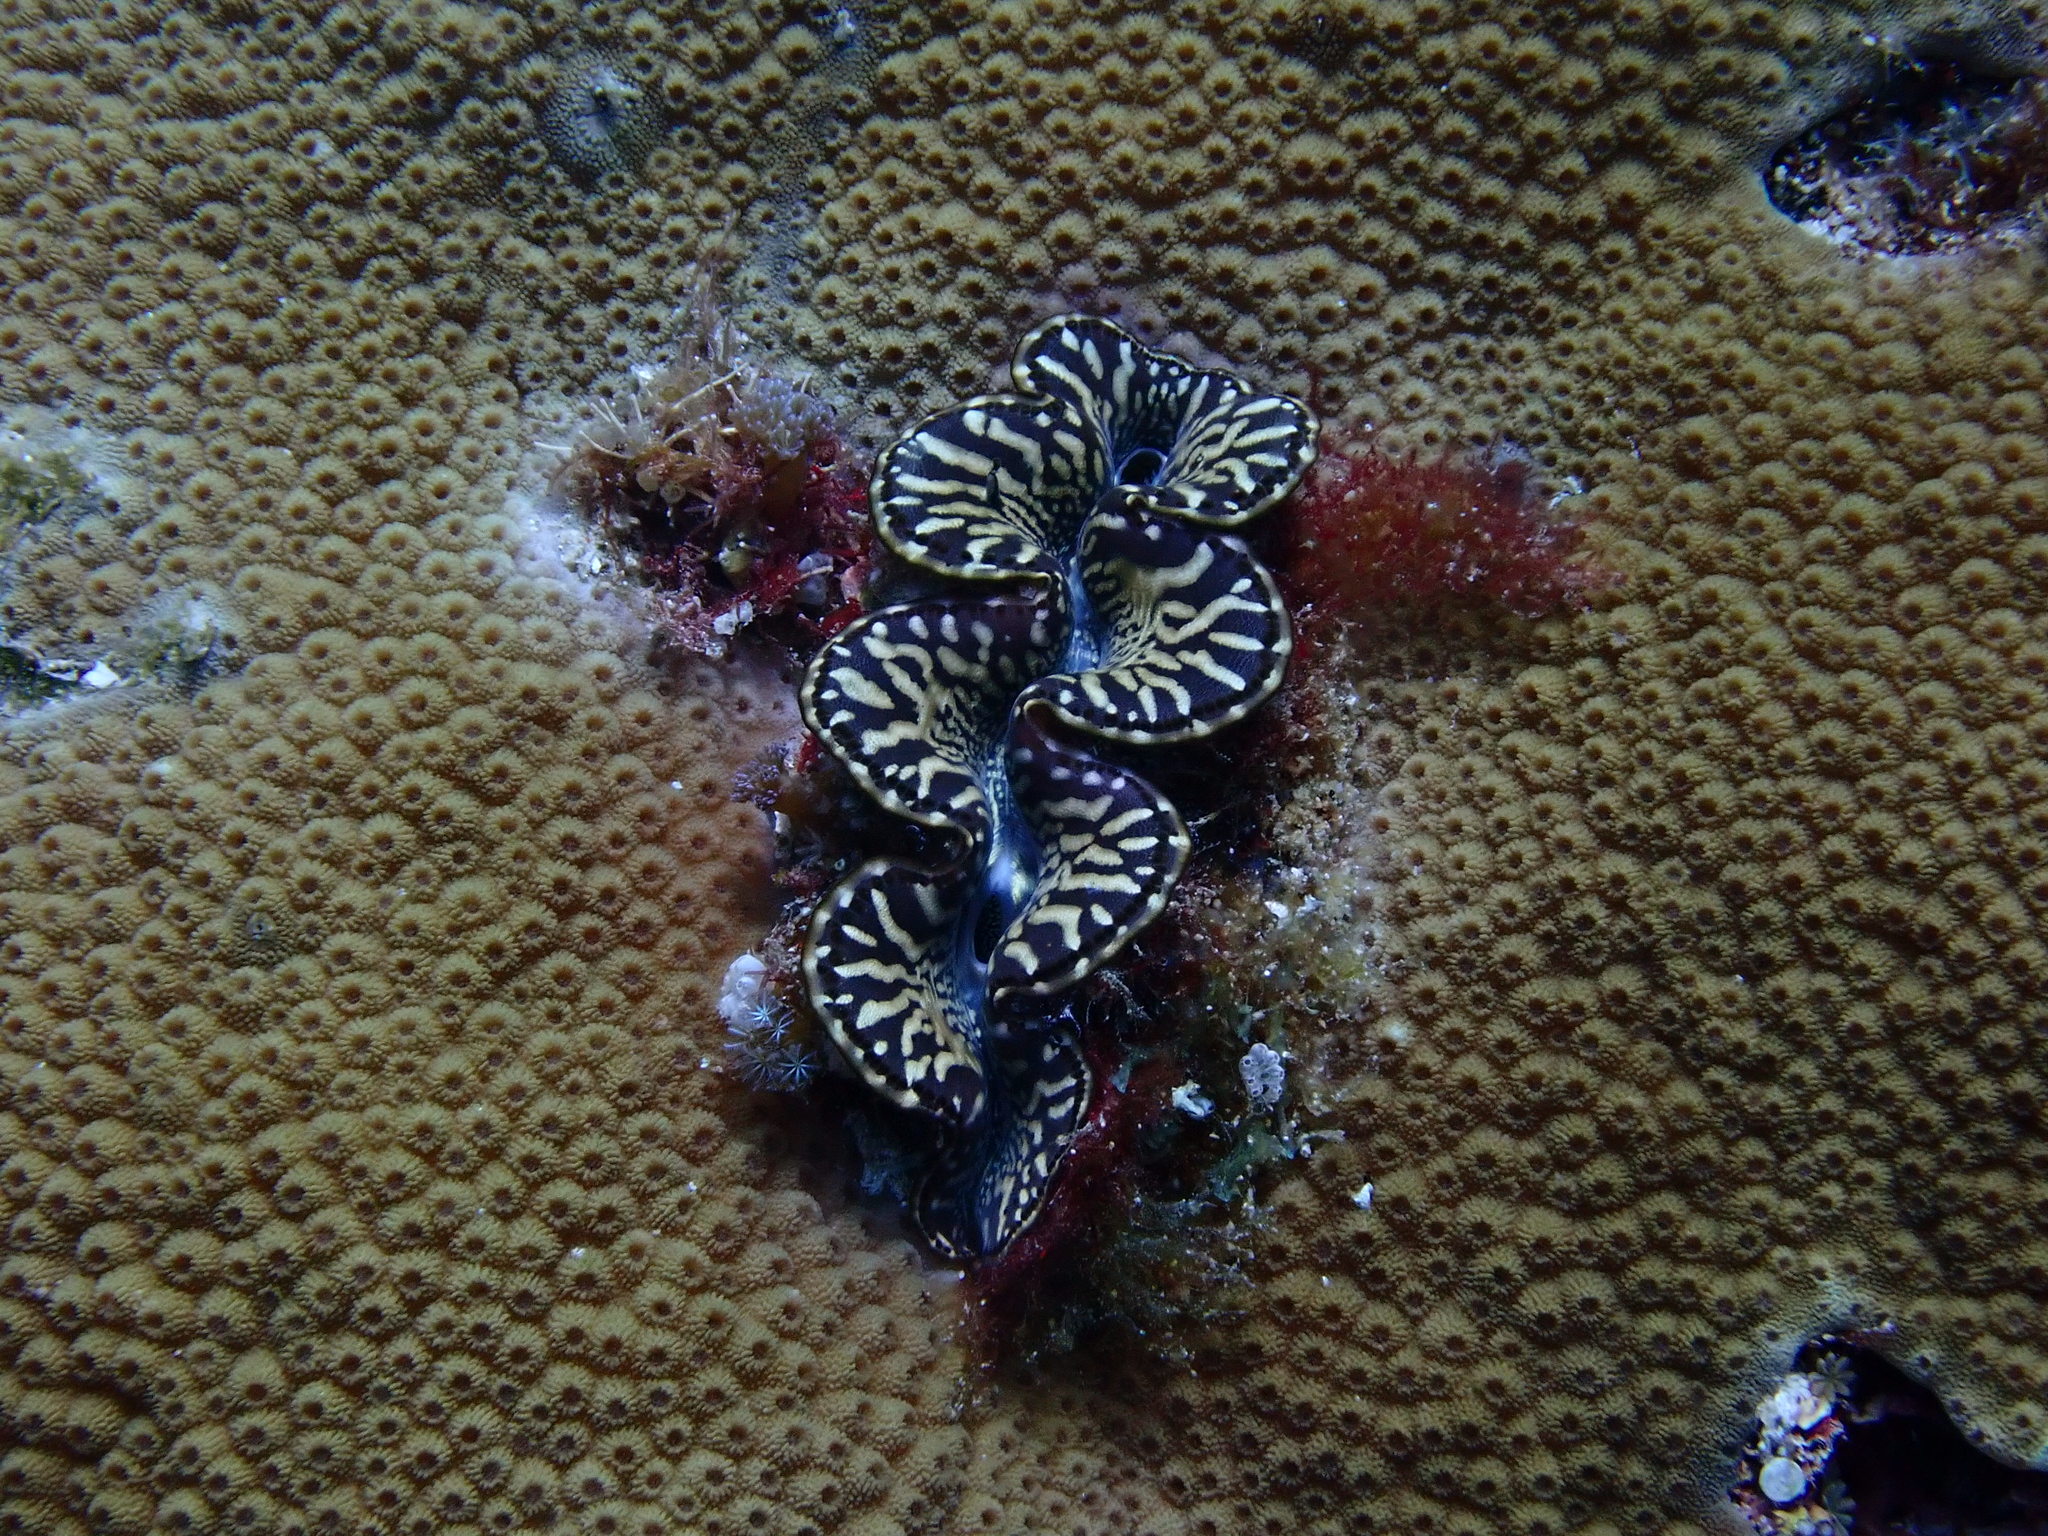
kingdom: Animalia
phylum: Mollusca
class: Bivalvia
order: Cardiida
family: Cardiidae
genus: Tridacna
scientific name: Tridacna maxima
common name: Small giant clam
